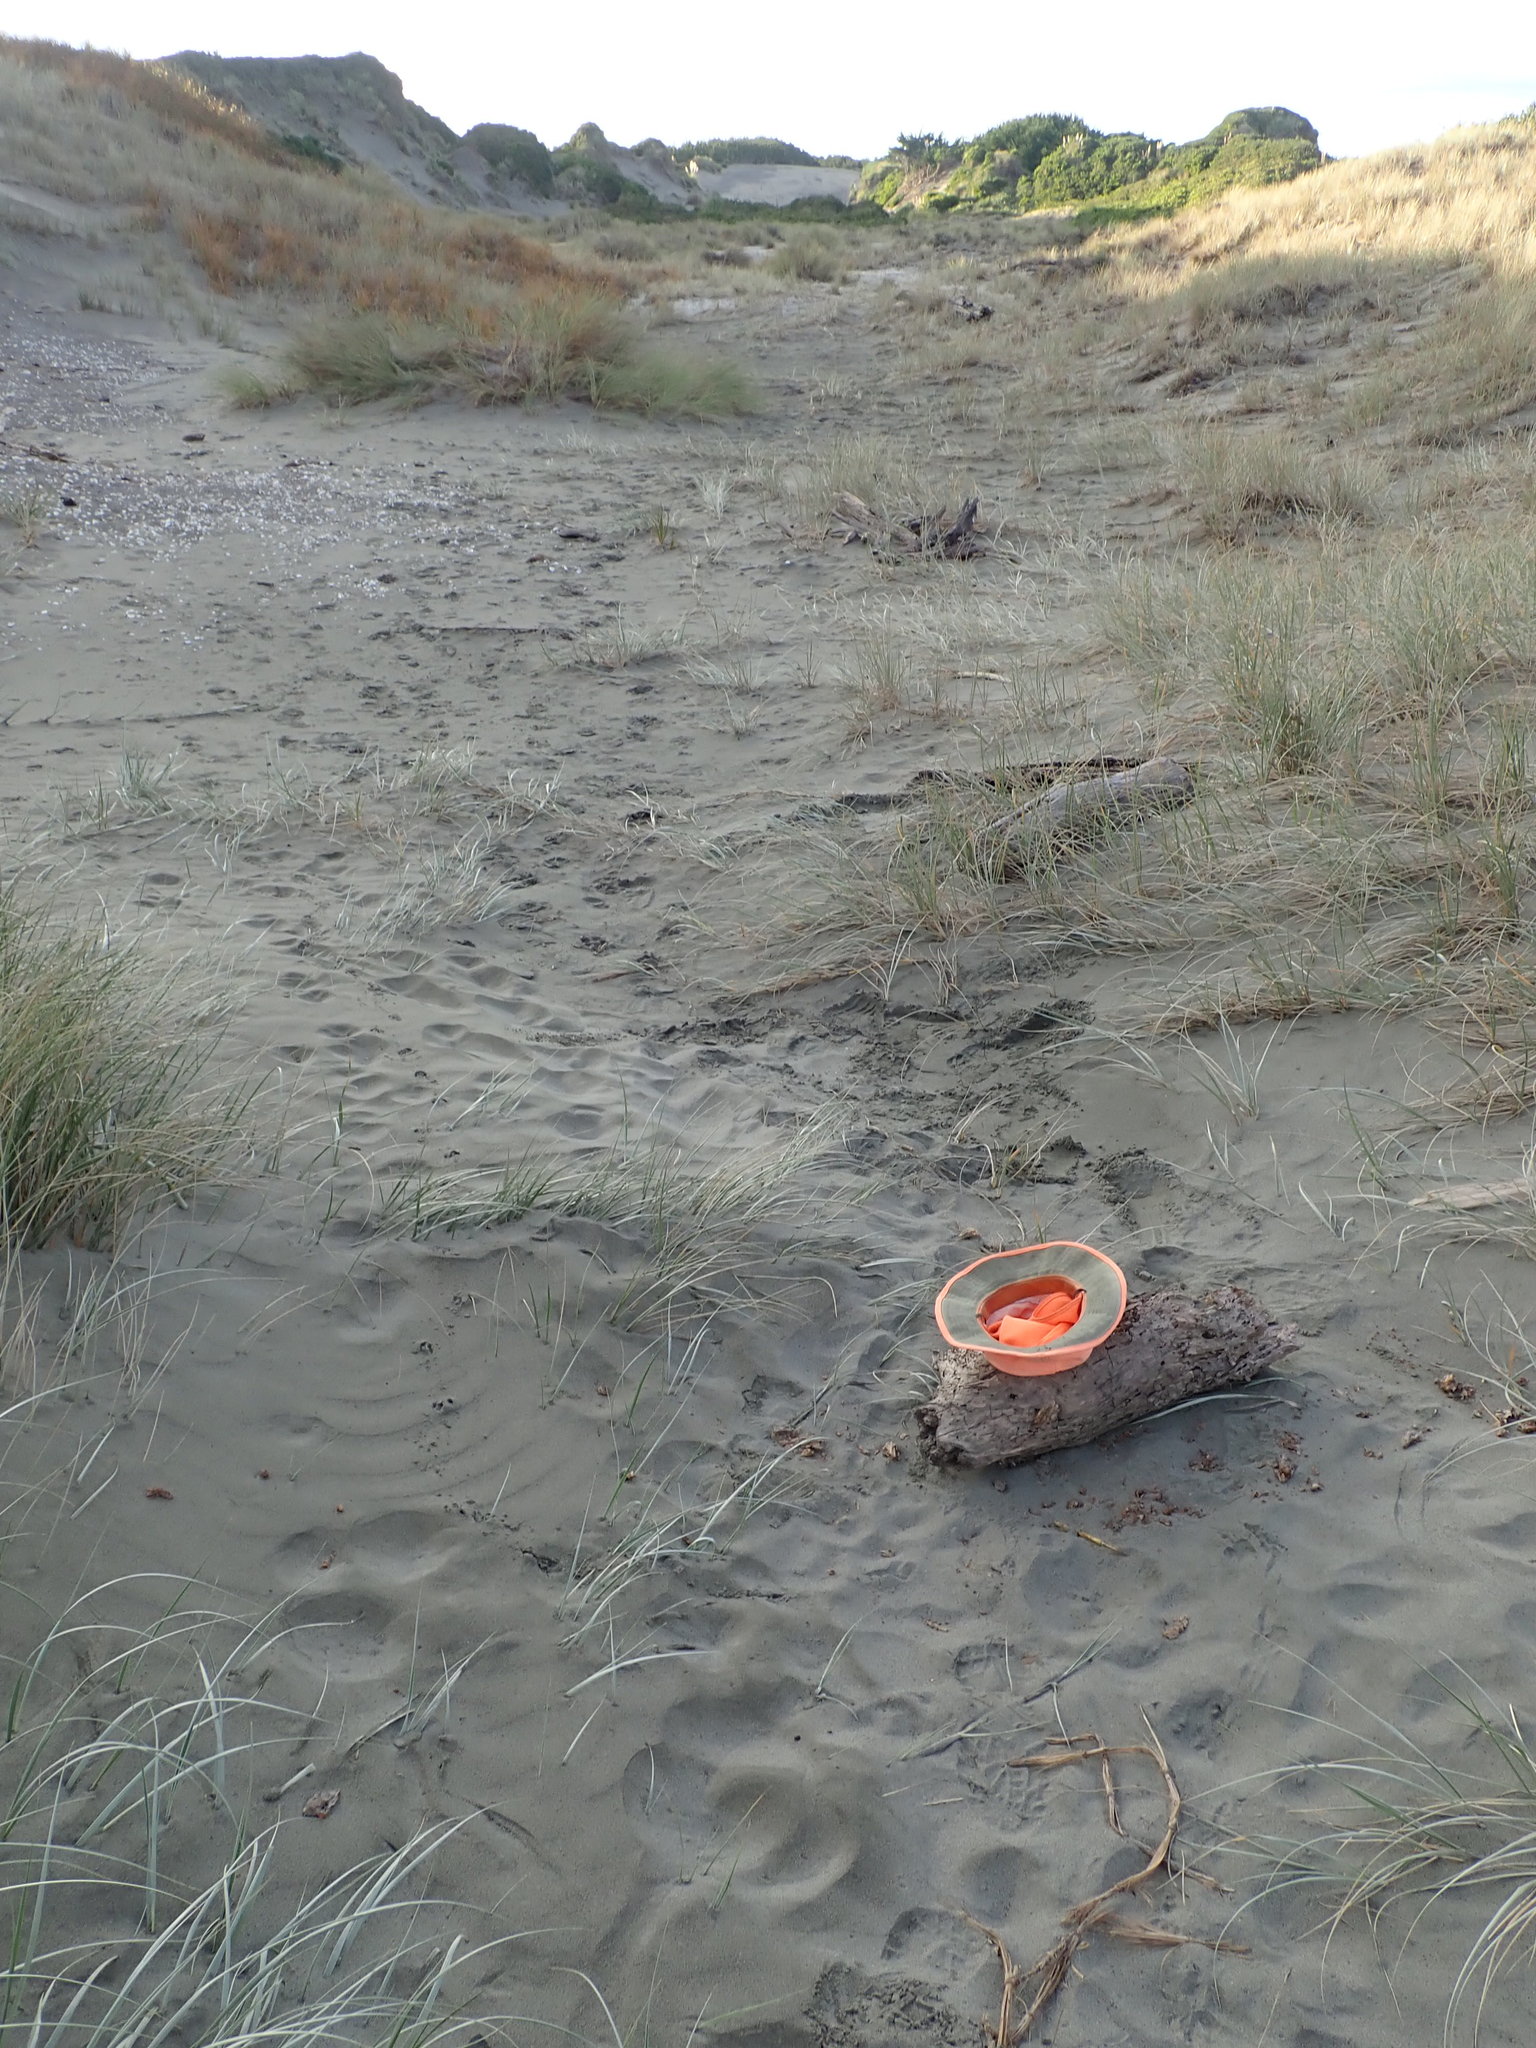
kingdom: Animalia
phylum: Arthropoda
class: Arachnida
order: Araneae
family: Stiphidiidae
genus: Stiphidion
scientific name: Stiphidion facetum
